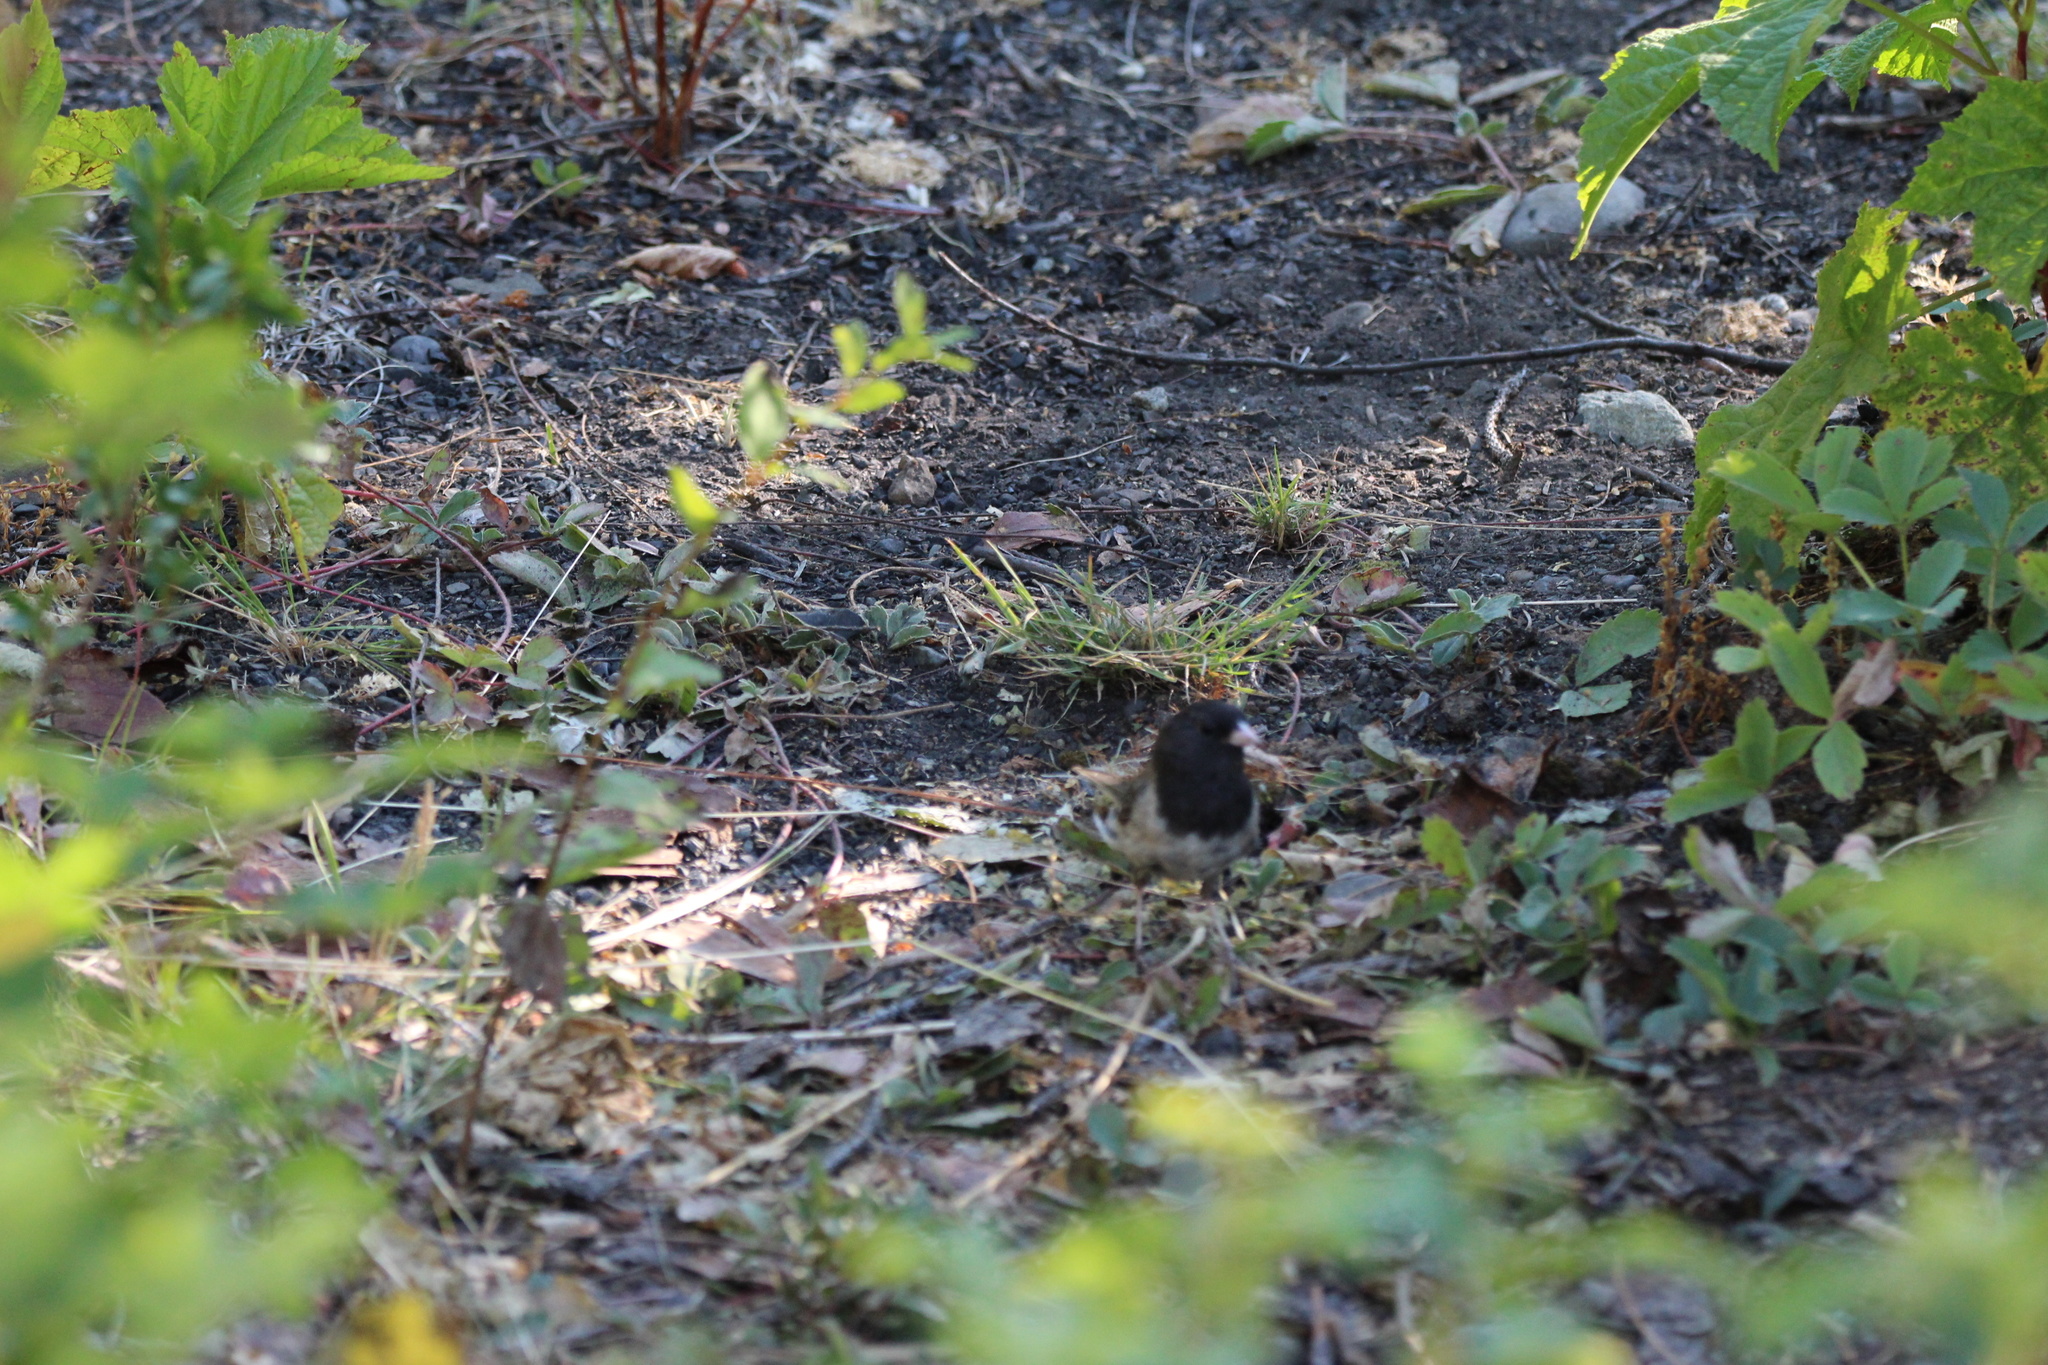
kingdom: Animalia
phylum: Chordata
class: Aves
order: Passeriformes
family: Passerellidae
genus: Junco
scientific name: Junco hyemalis
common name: Dark-eyed junco
